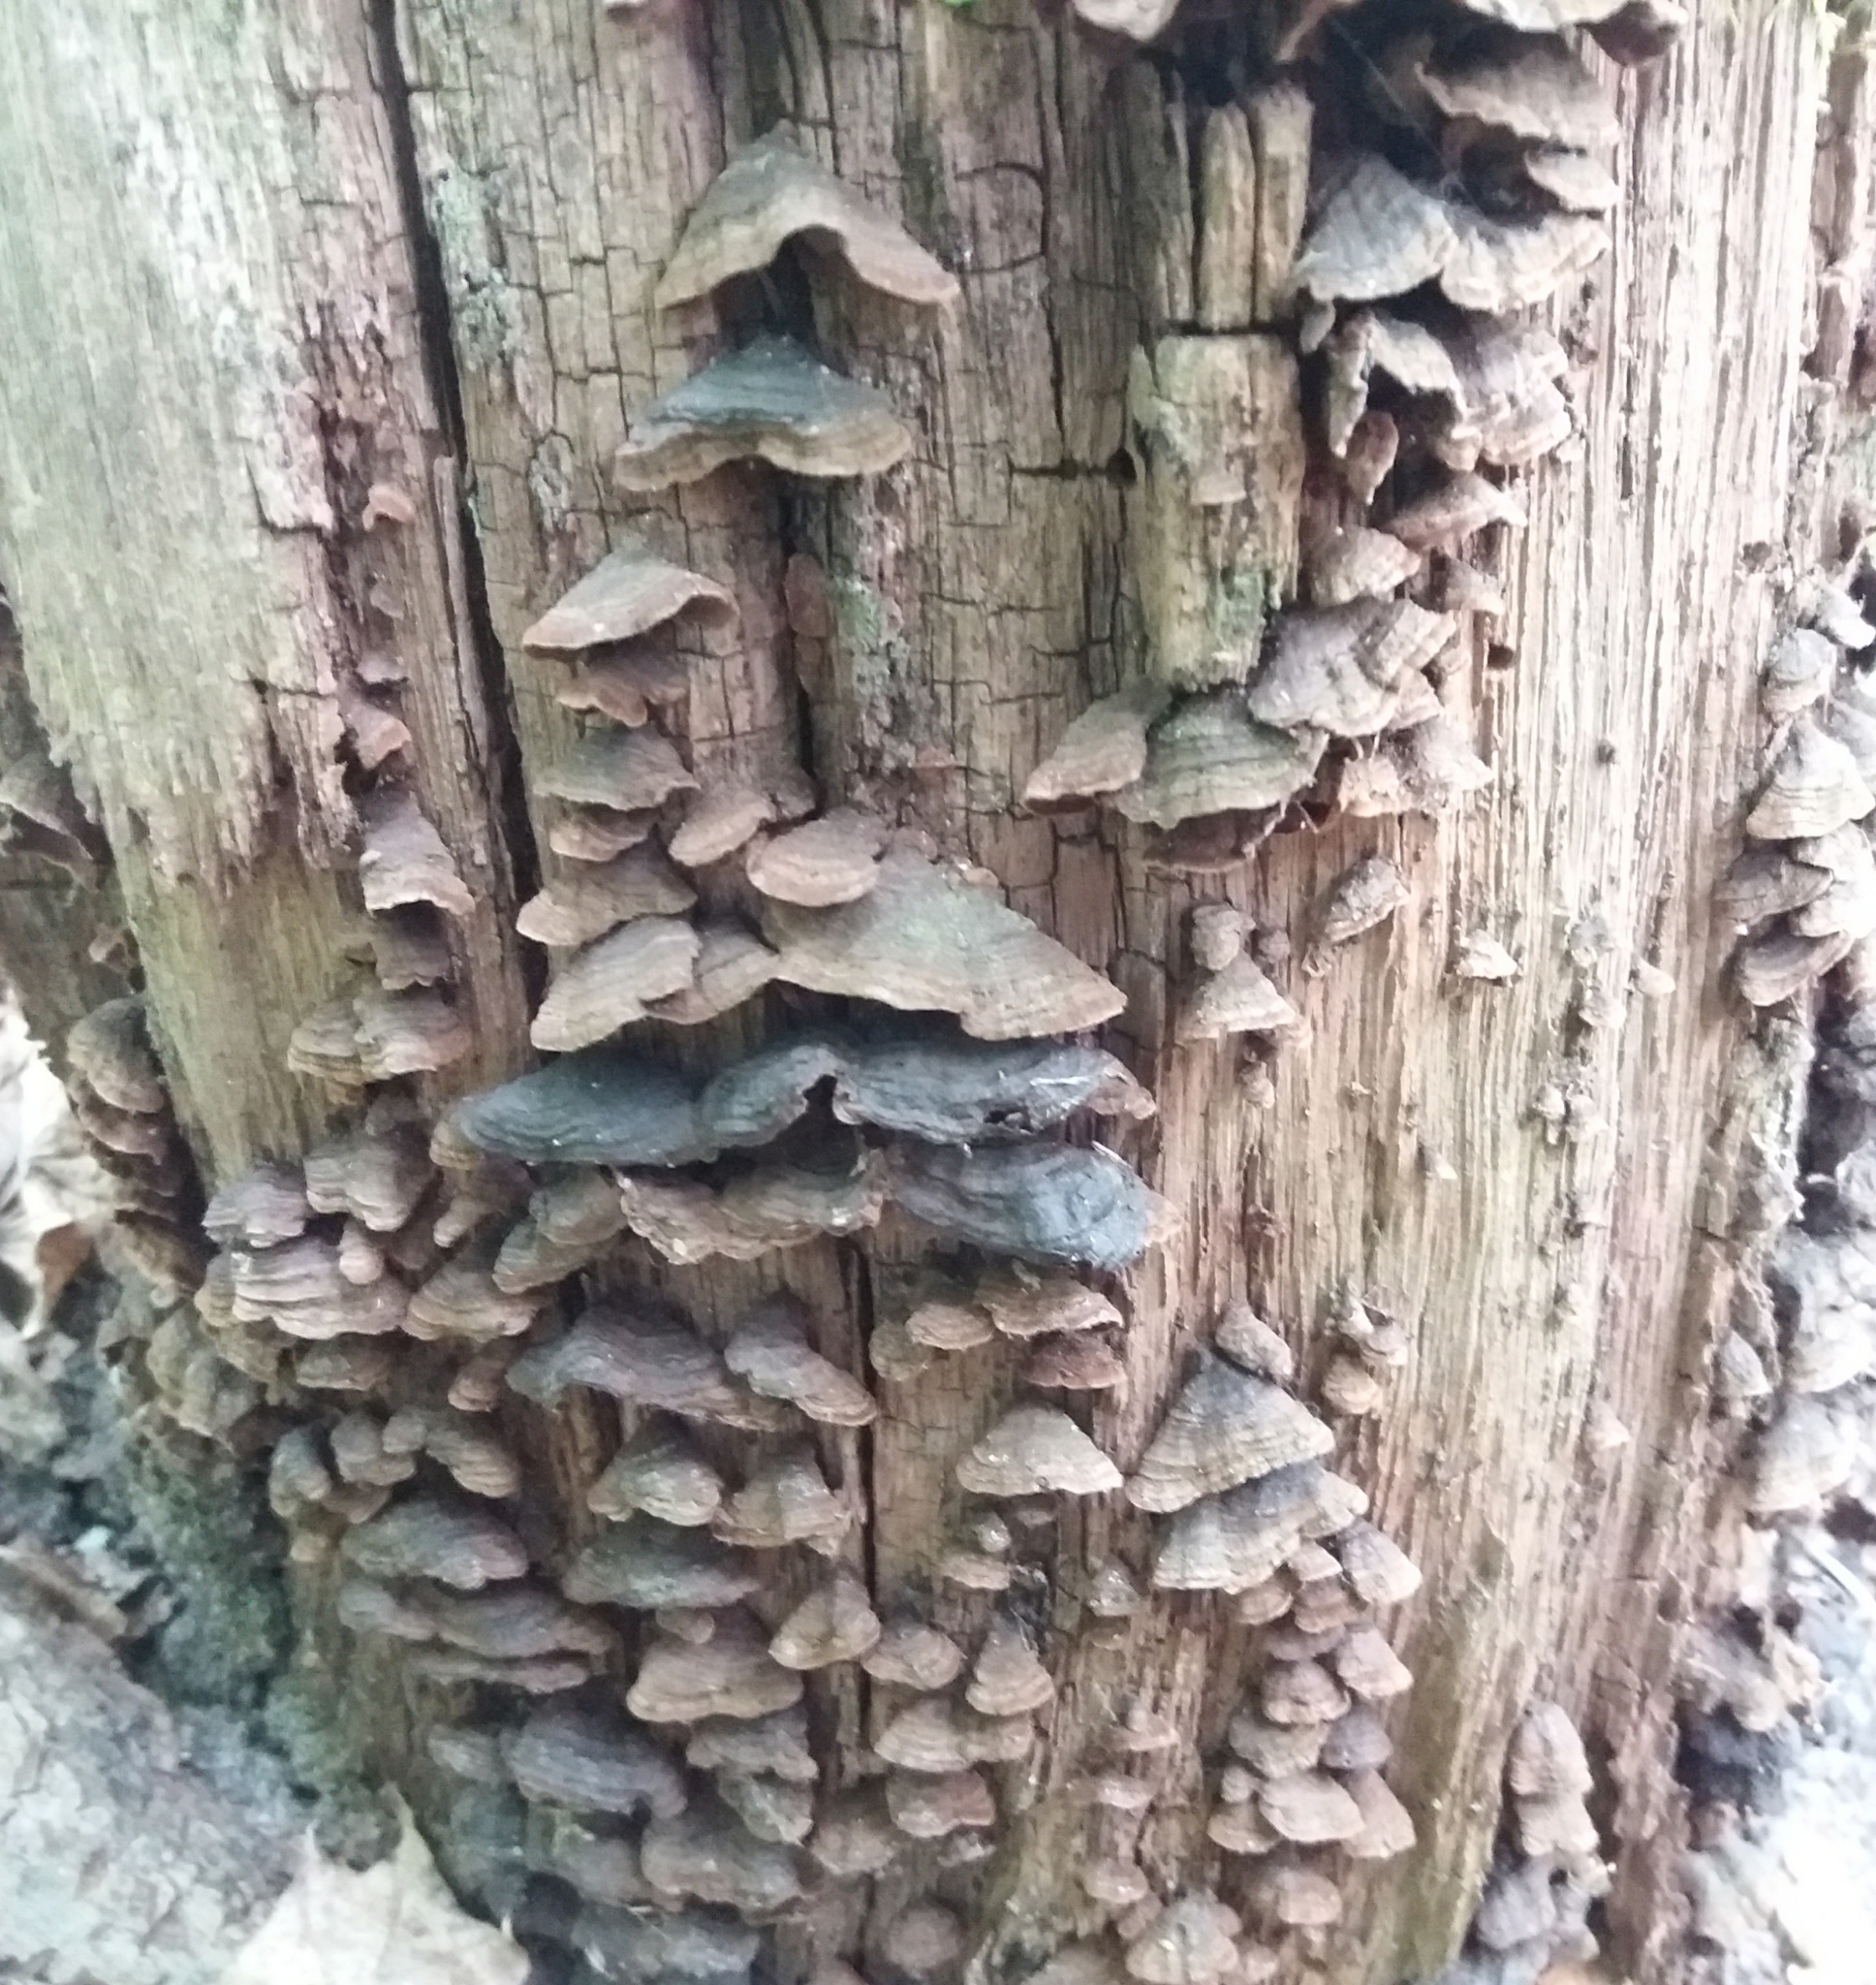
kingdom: Fungi
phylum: Basidiomycota
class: Agaricomycetes
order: Hymenochaetales
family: Hymenochaetaceae
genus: Hymenochaete
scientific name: Hymenochaete rubiginosa
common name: Oak curtain crust
